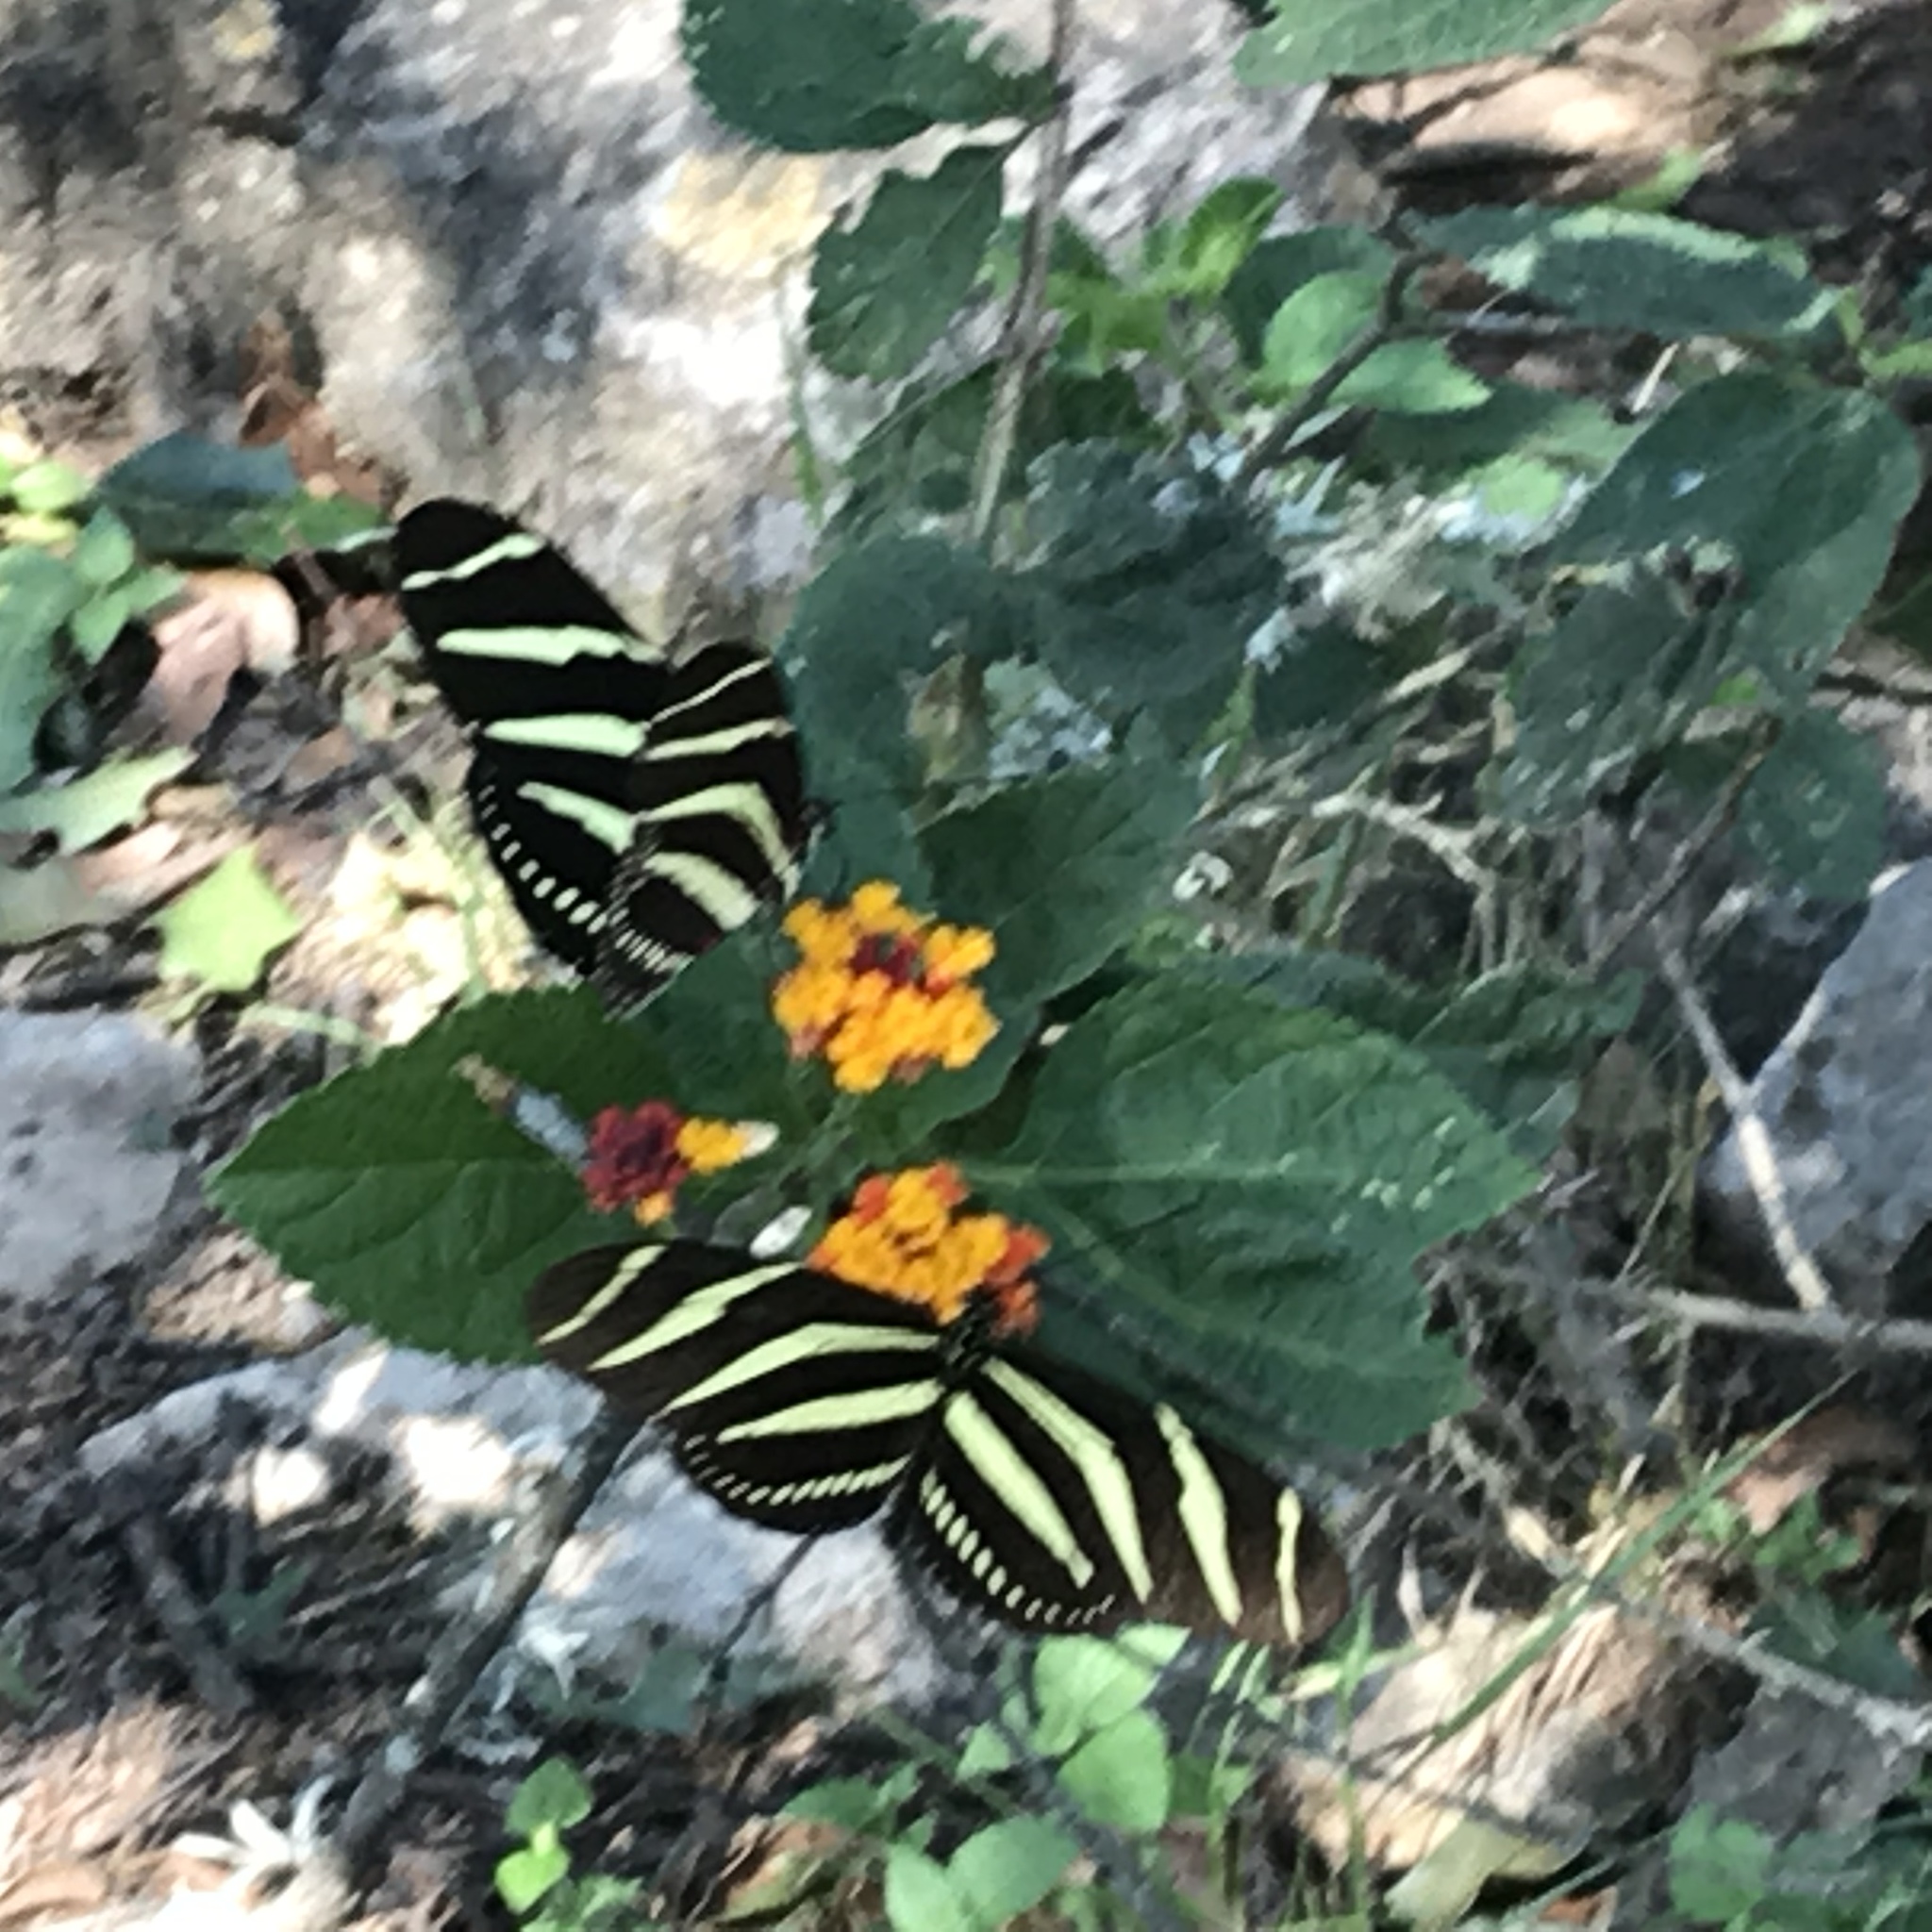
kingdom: Animalia
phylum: Arthropoda
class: Insecta
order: Lepidoptera
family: Nymphalidae
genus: Heliconius
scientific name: Heliconius charithonia
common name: Zebra long wing
